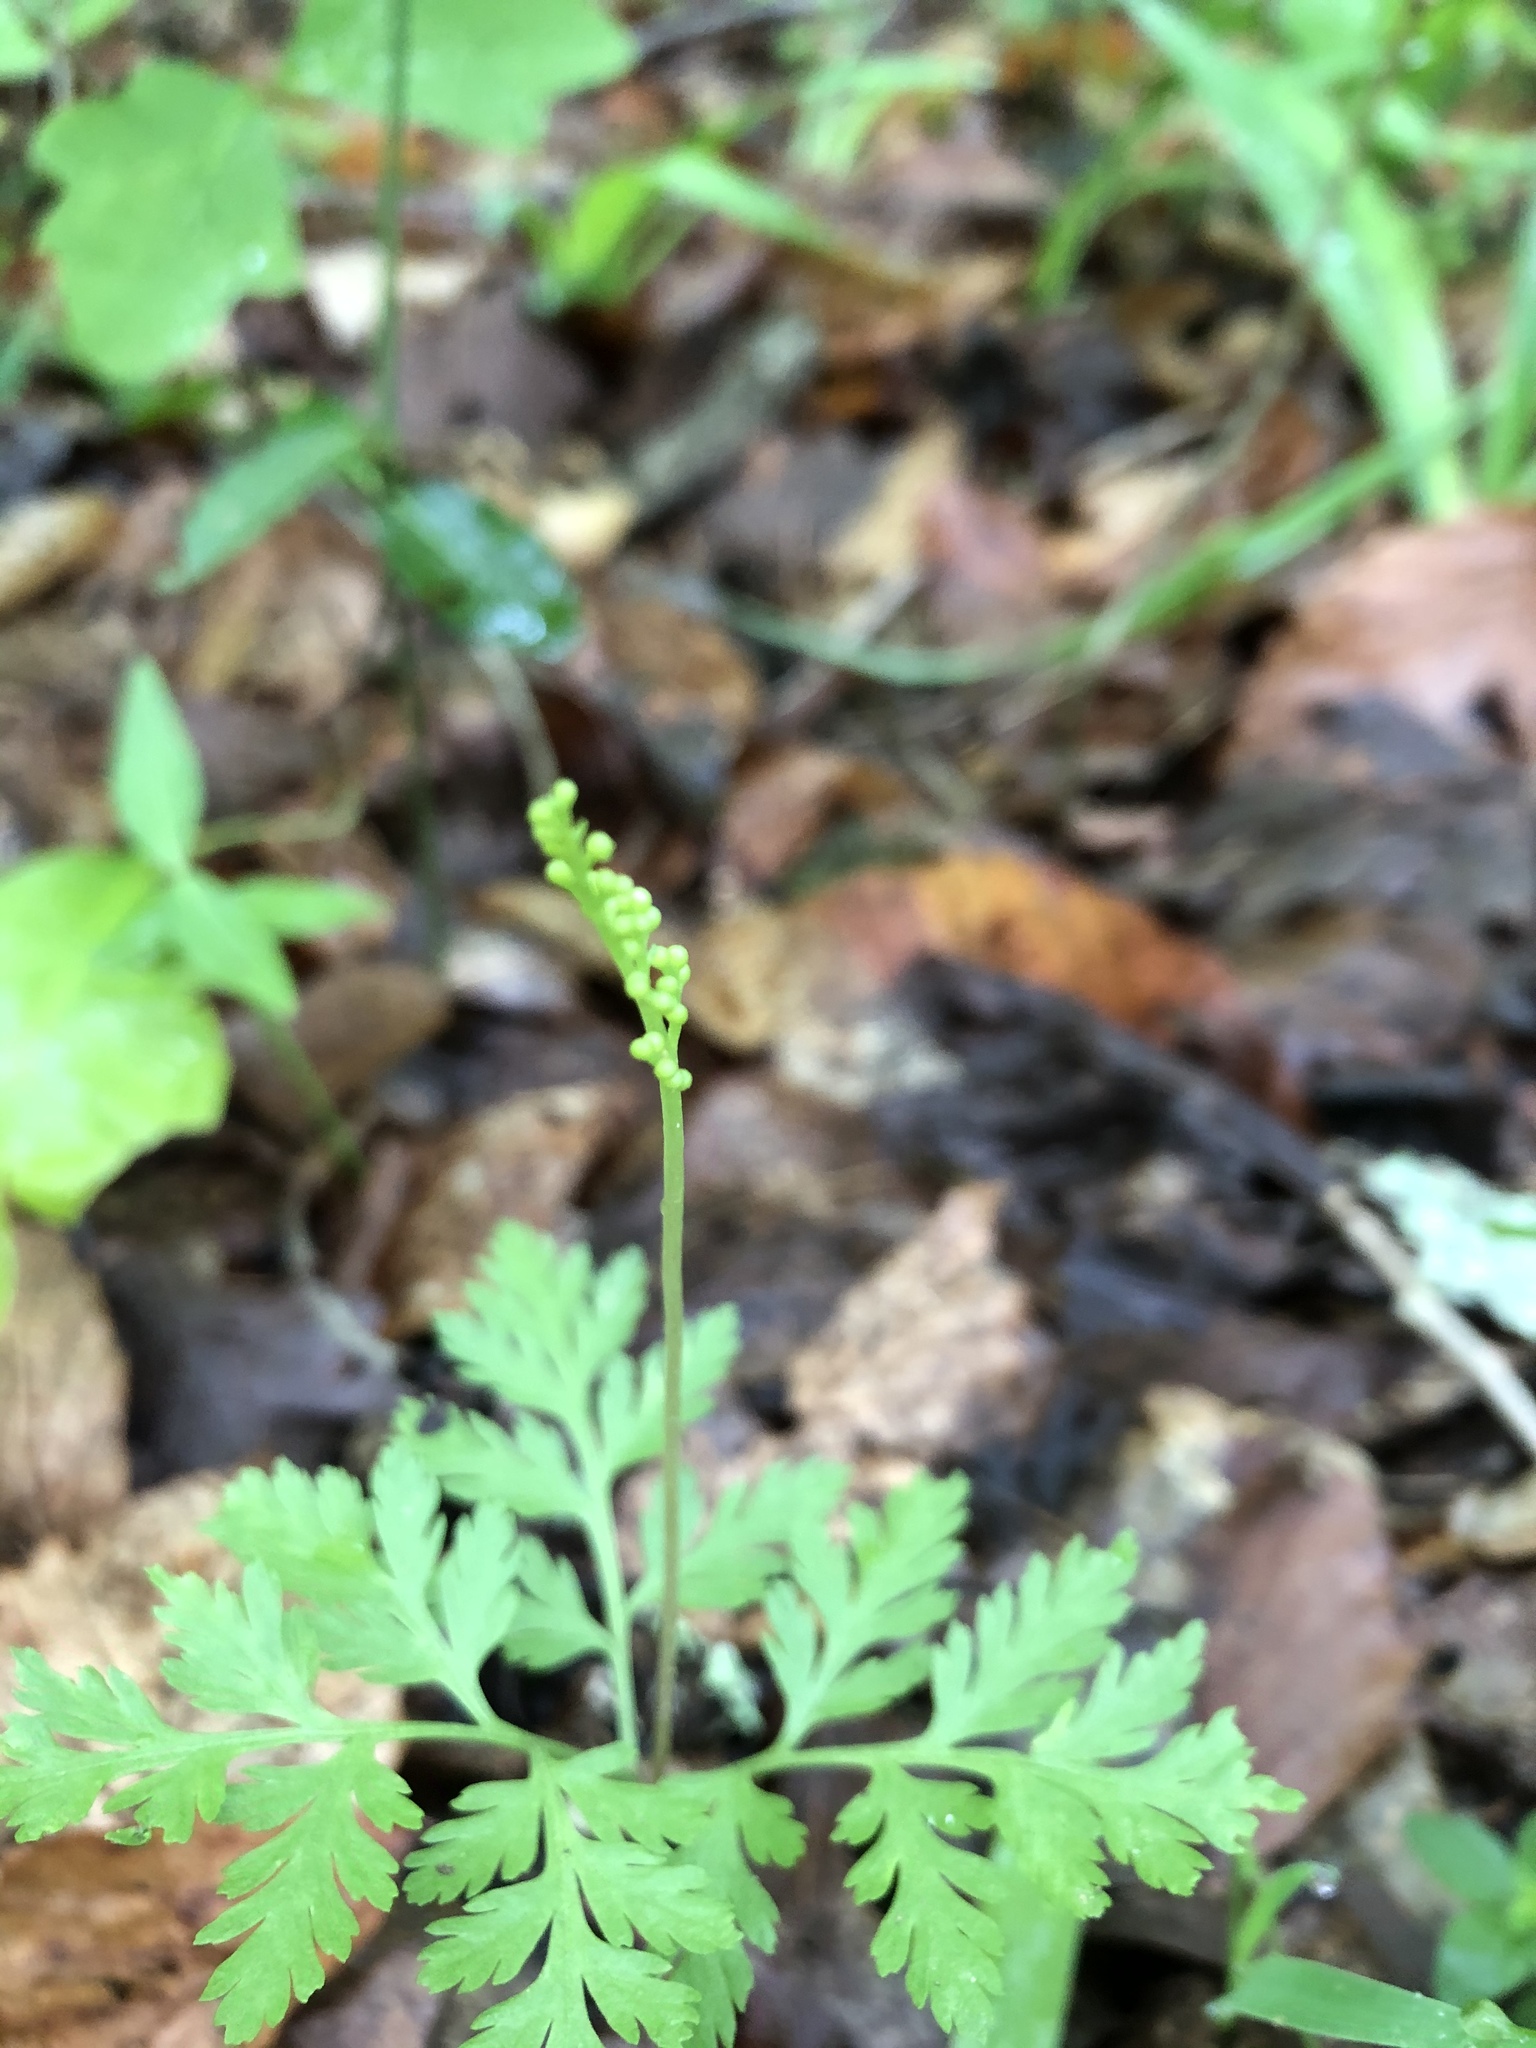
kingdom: Plantae
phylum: Tracheophyta
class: Polypodiopsida
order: Ophioglossales
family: Ophioglossaceae
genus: Botrypus
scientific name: Botrypus virginianus
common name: Common grapefern
